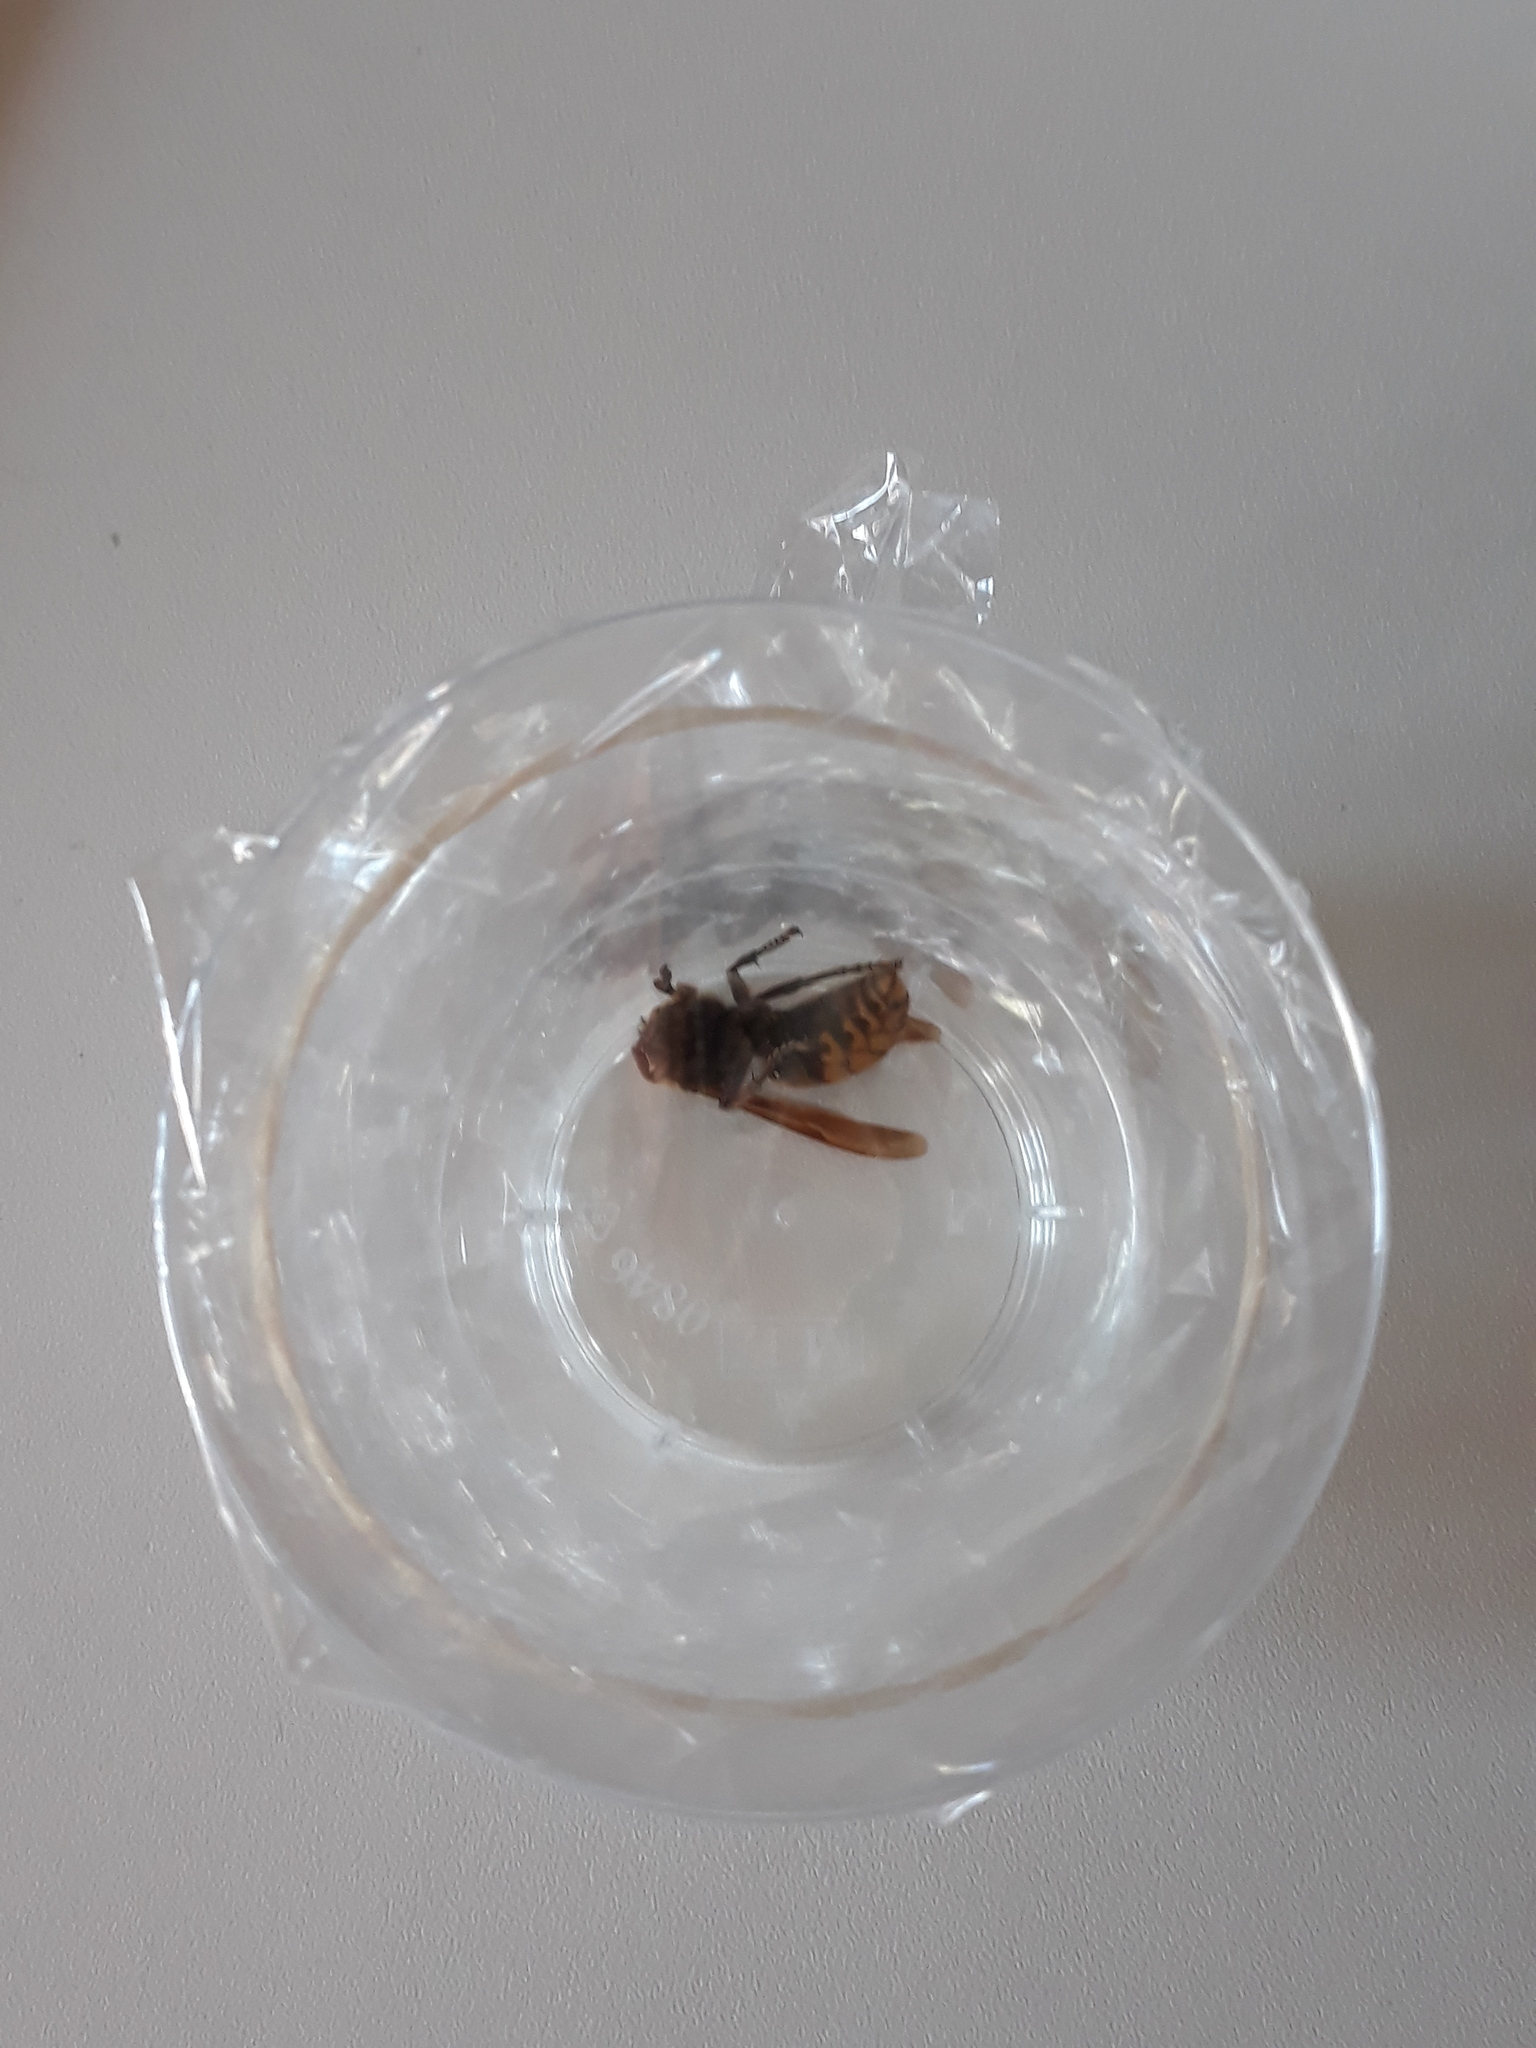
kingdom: Animalia
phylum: Arthropoda
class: Insecta
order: Hymenoptera
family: Vespidae
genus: Vespa
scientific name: Vespa crabro
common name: Hornet
